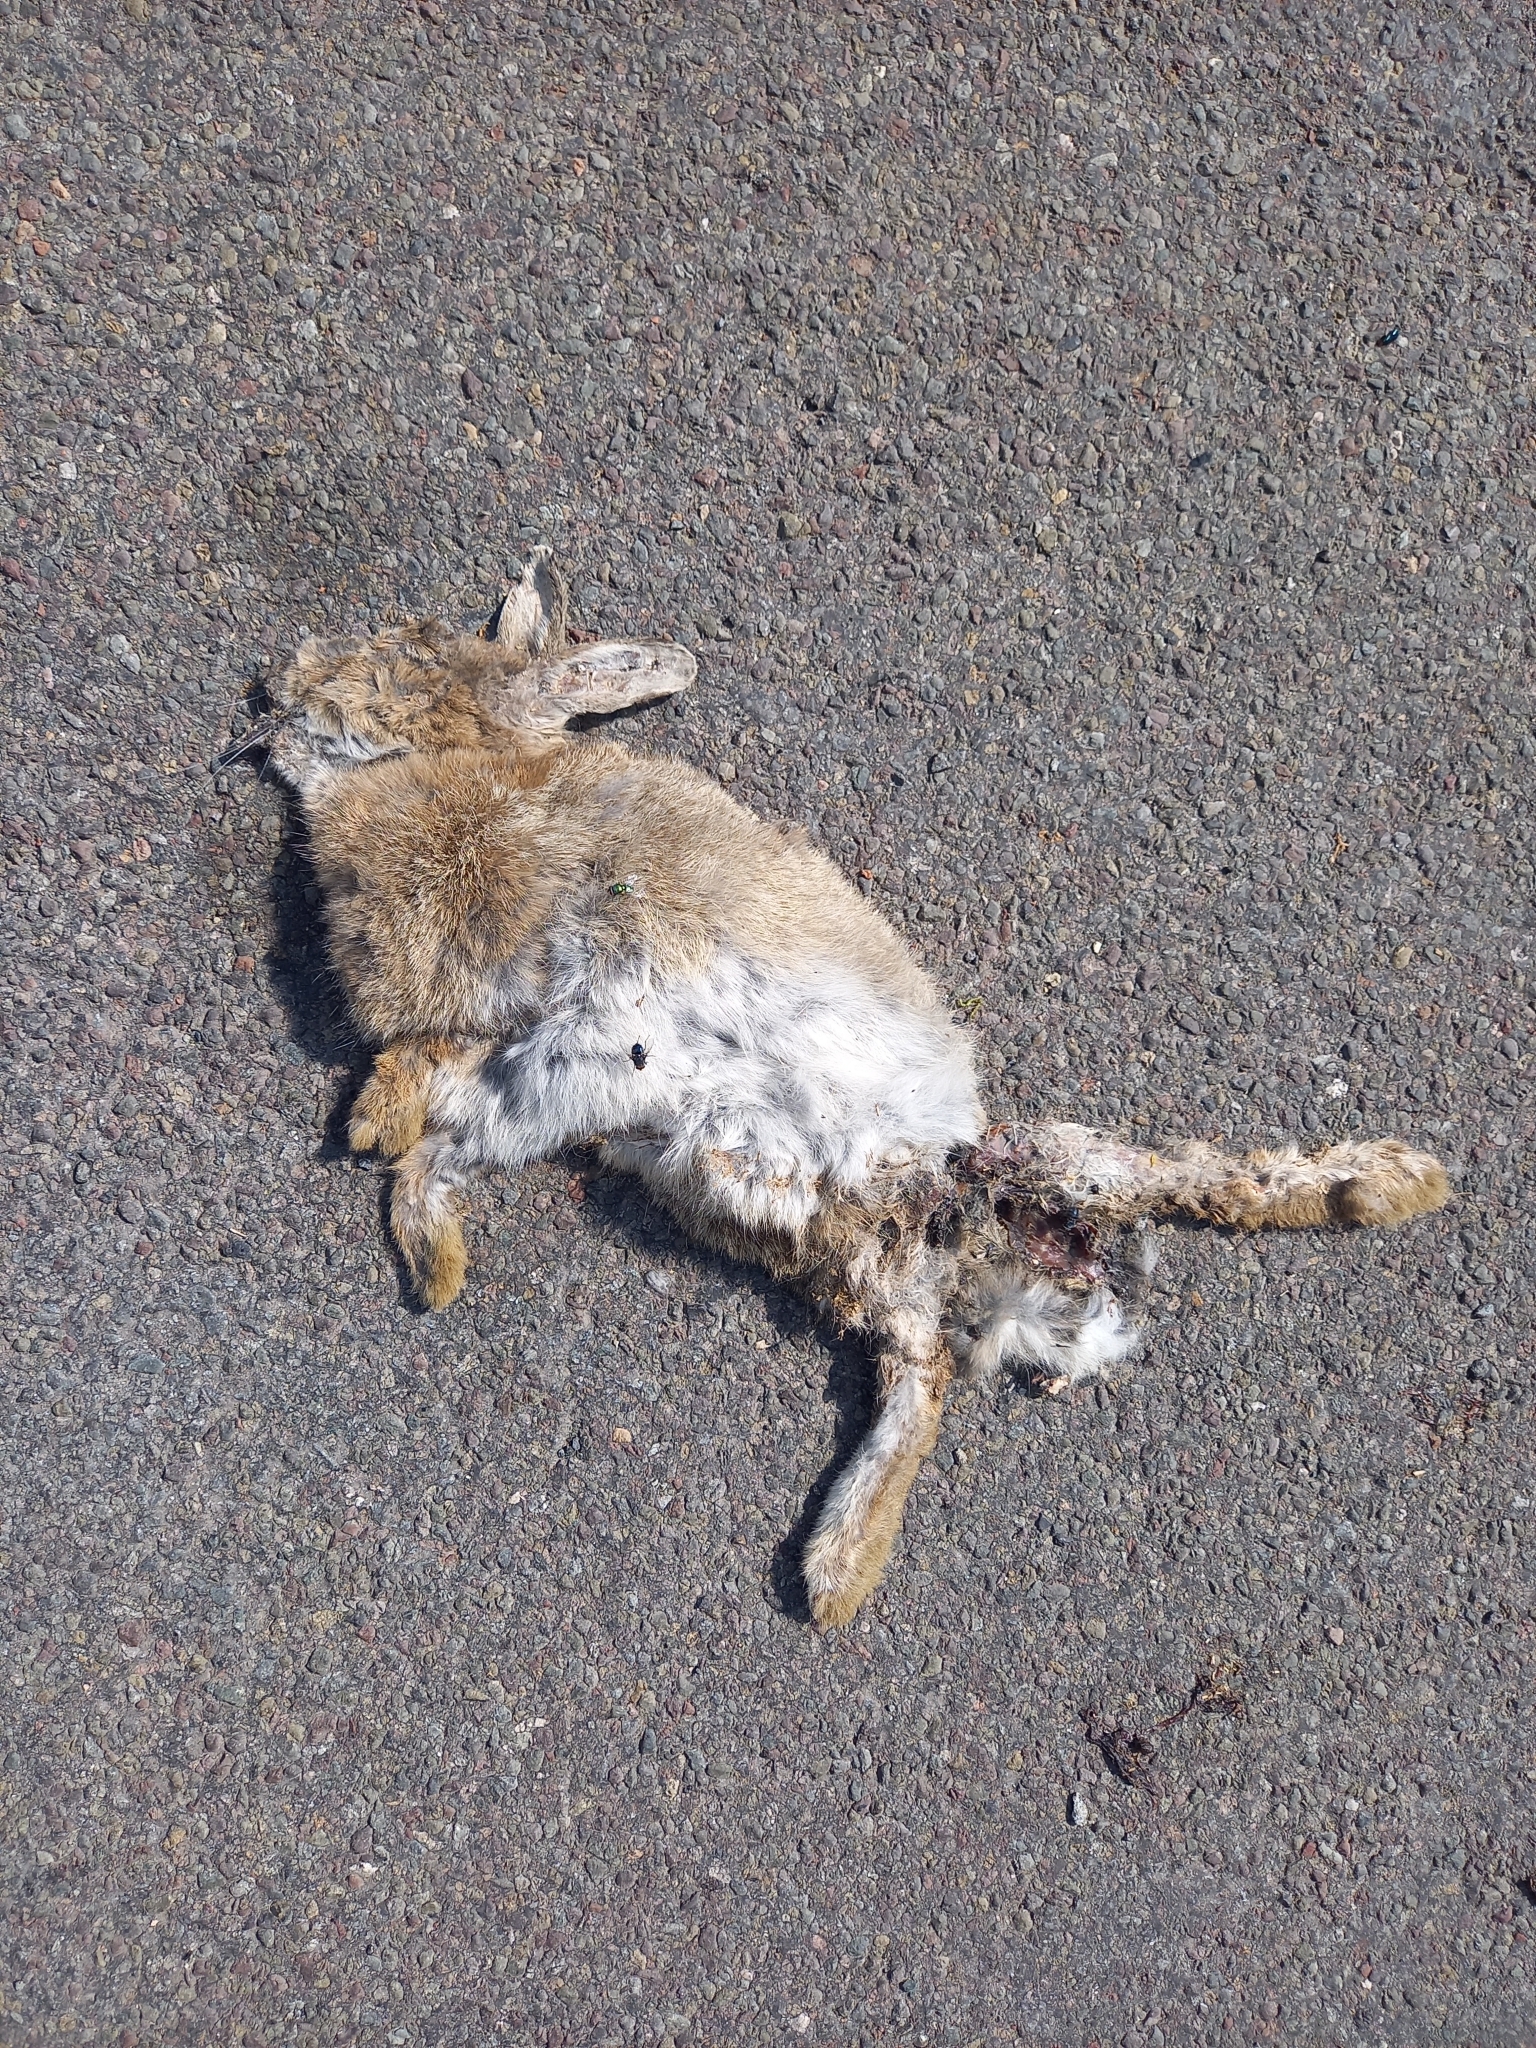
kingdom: Animalia
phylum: Chordata
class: Mammalia
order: Lagomorpha
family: Leporidae
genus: Oryctolagus
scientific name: Oryctolagus cuniculus
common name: European rabbit
